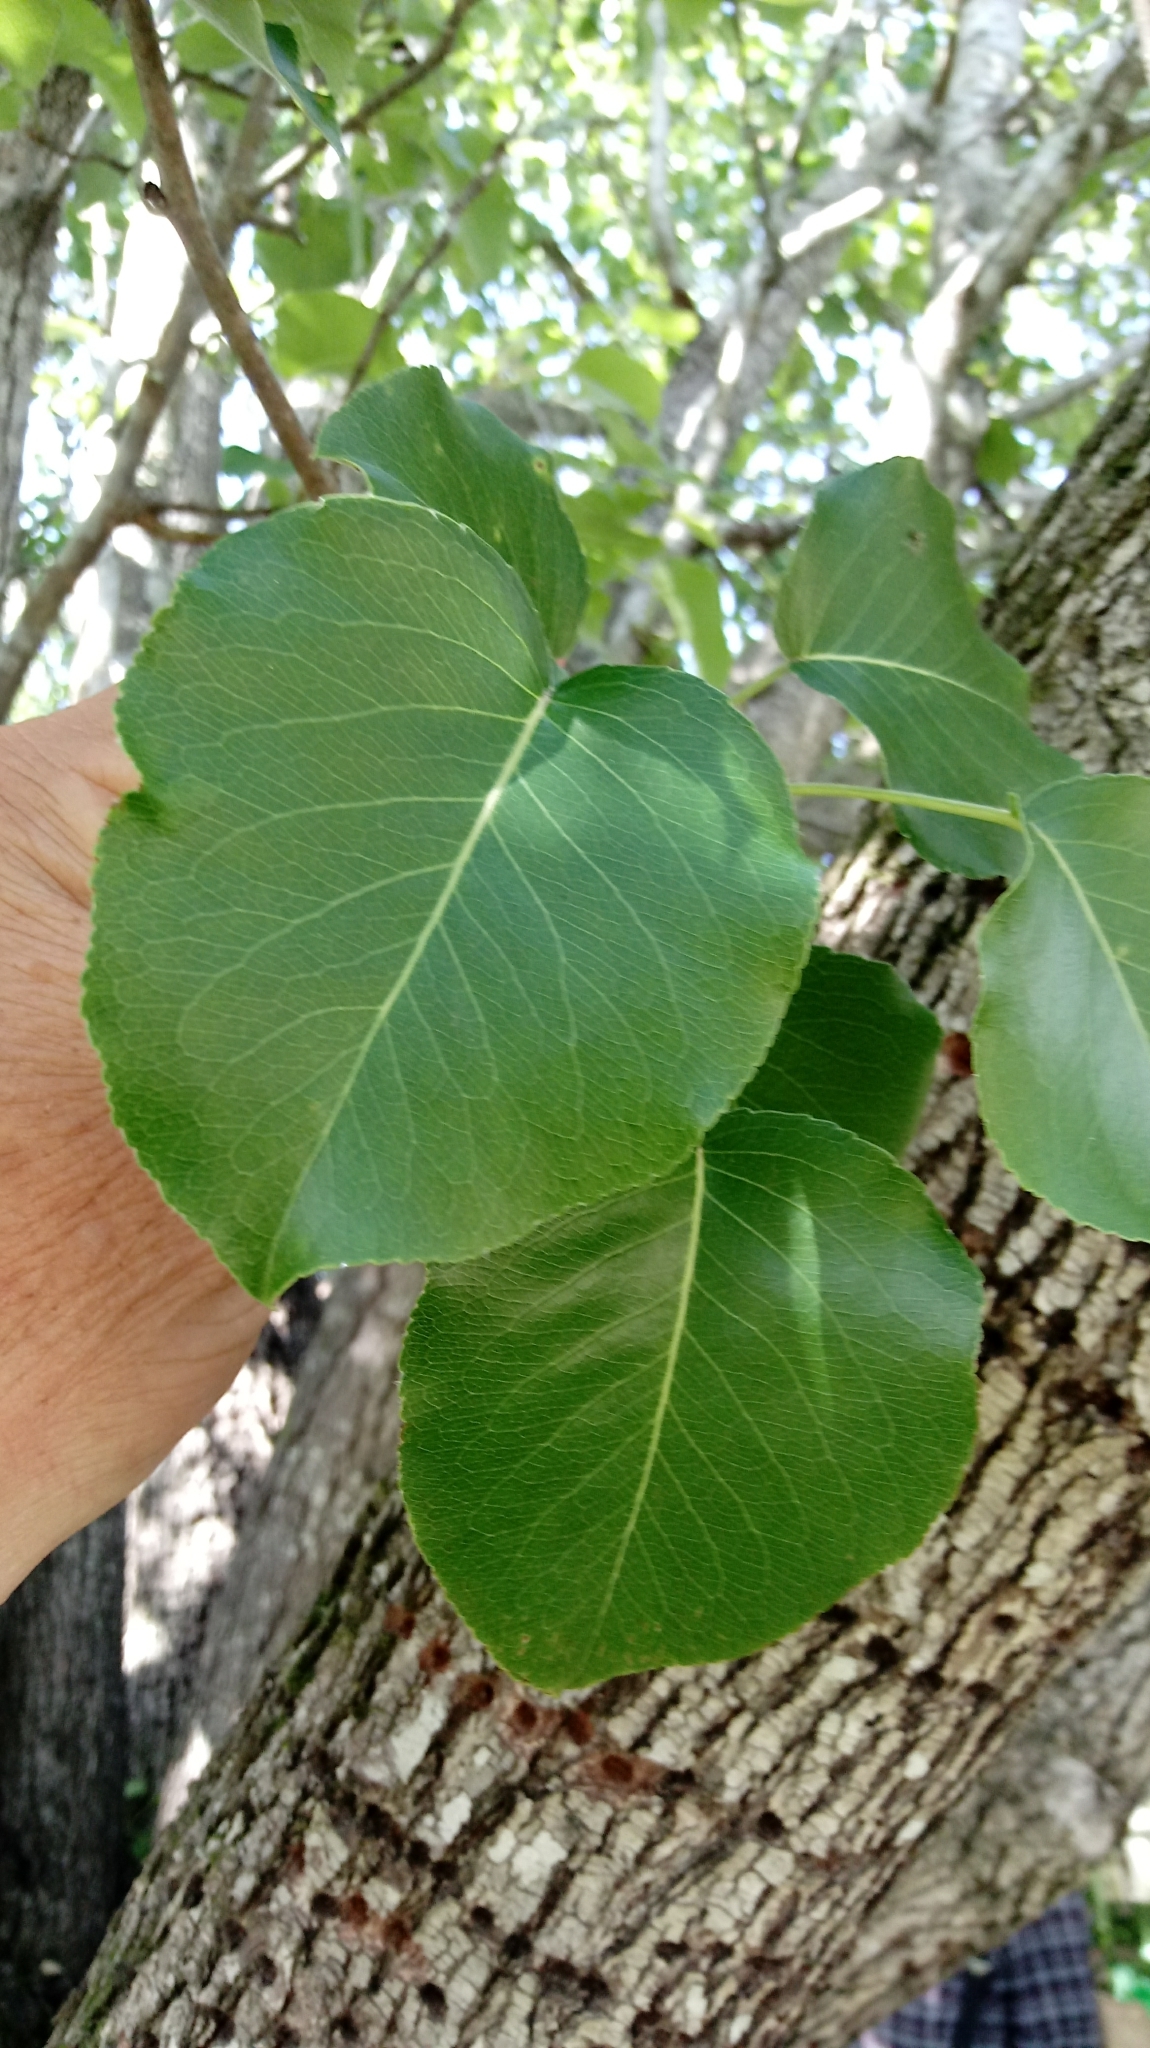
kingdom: Plantae
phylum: Tracheophyta
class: Magnoliopsida
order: Rosales
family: Rosaceae
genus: Pyrus
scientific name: Pyrus calleryana
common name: Callery pear
